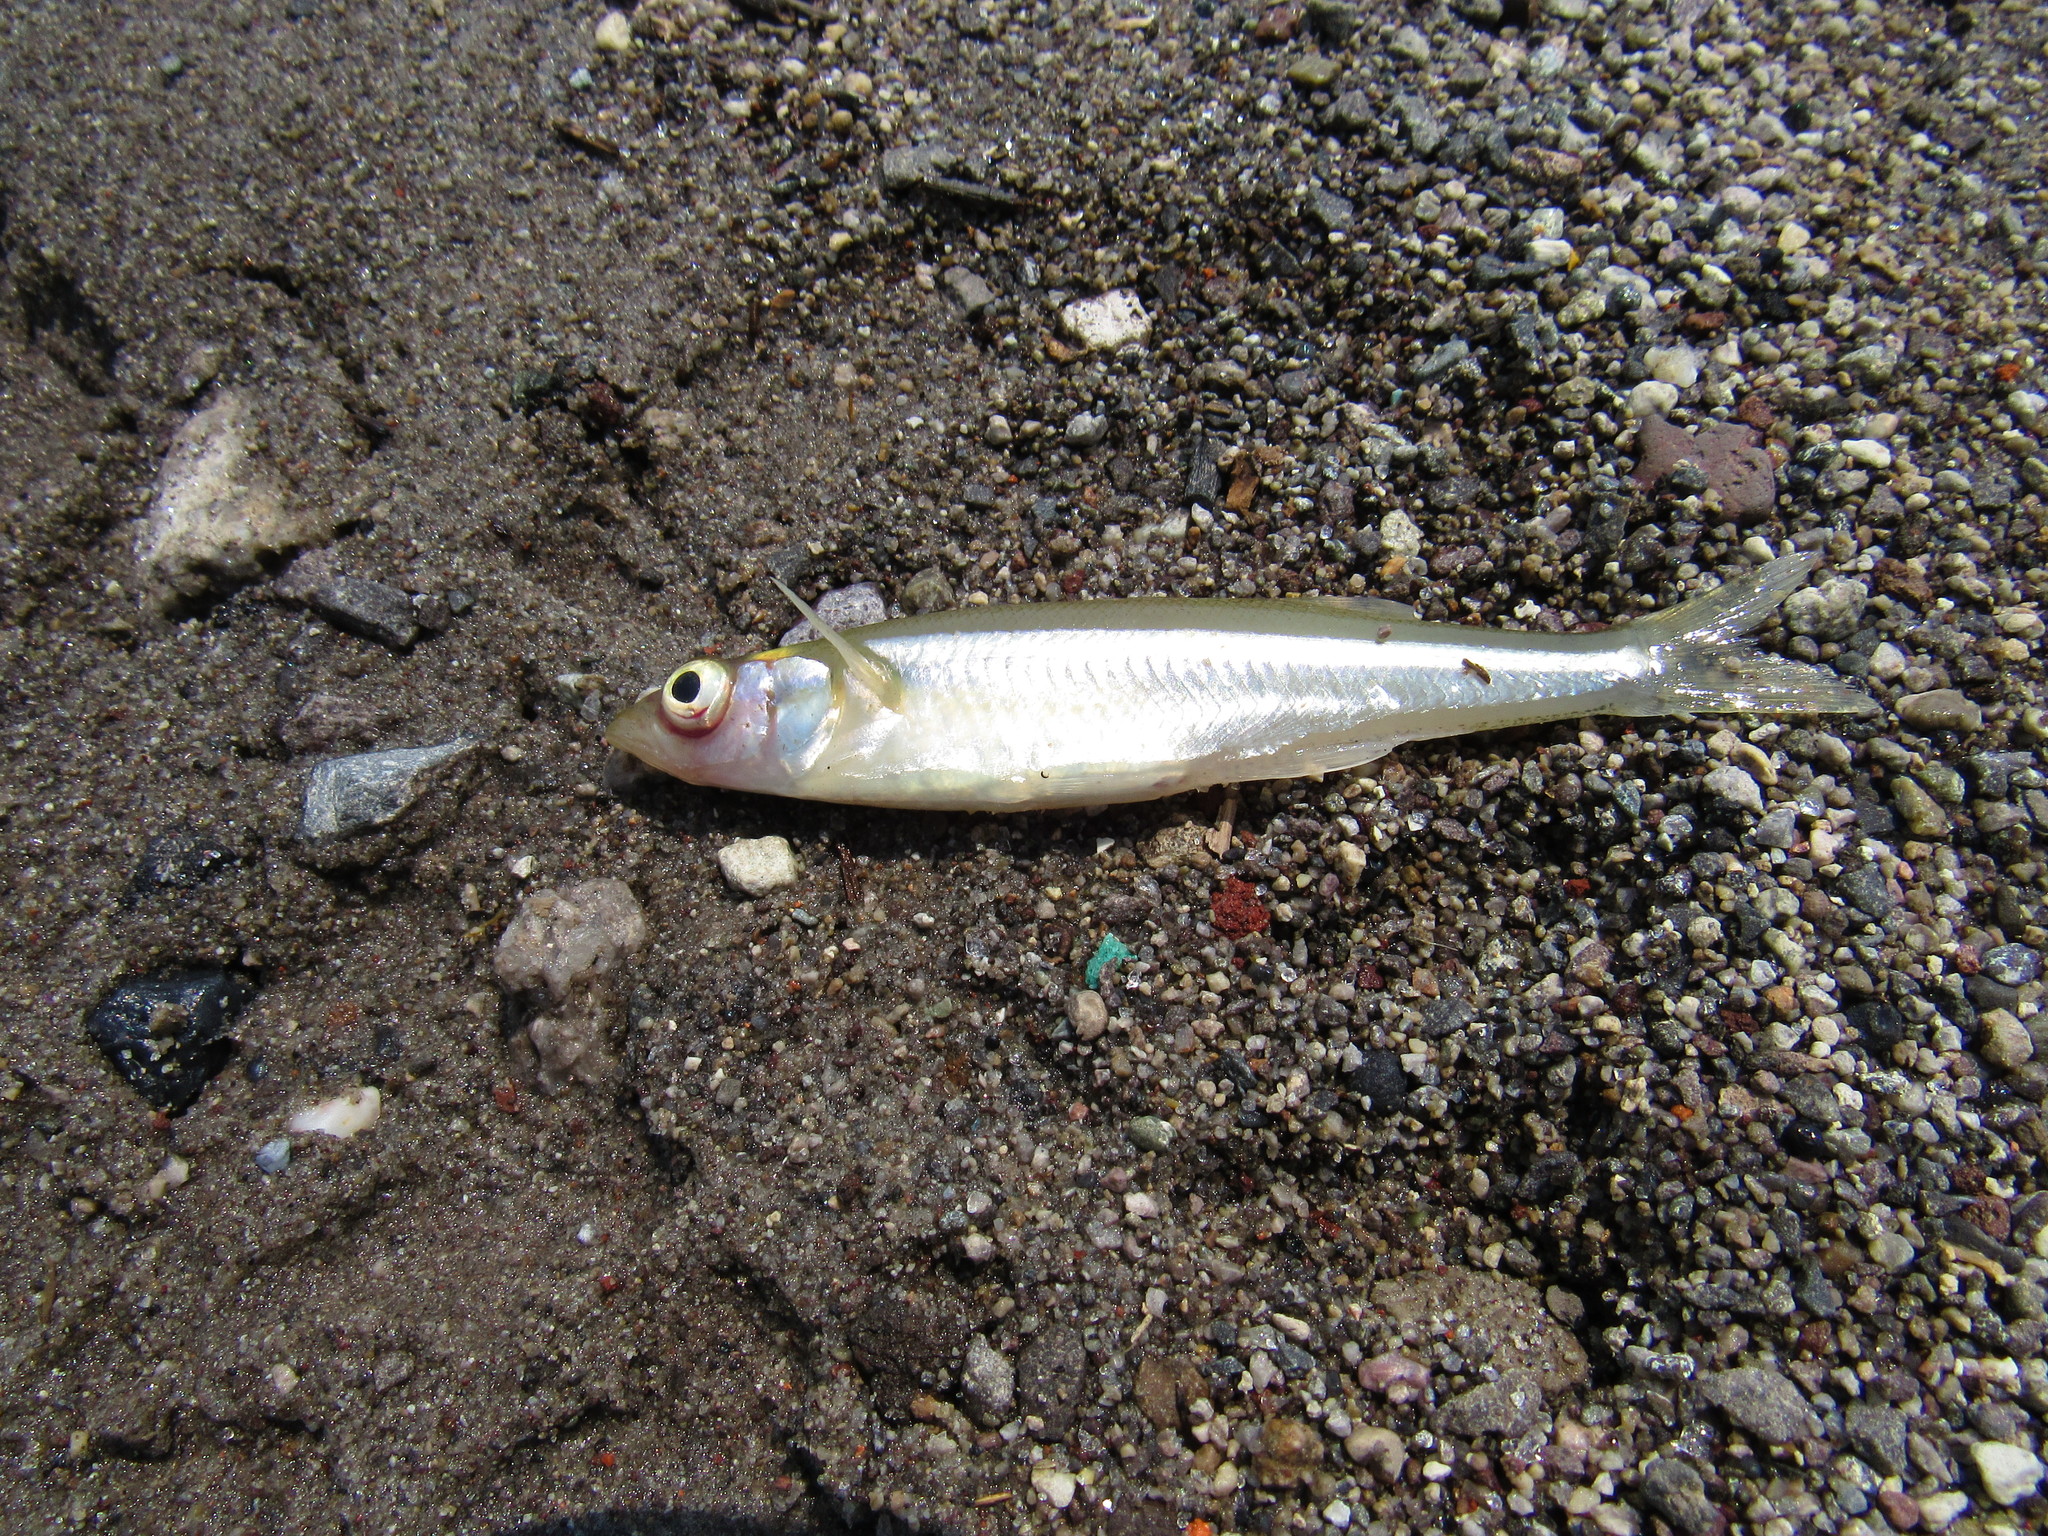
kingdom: Animalia
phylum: Chordata
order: Atheriniformes
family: Atherinopsidae
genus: Chirostoma
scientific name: Chirostoma jordani
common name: Mesa silverside
